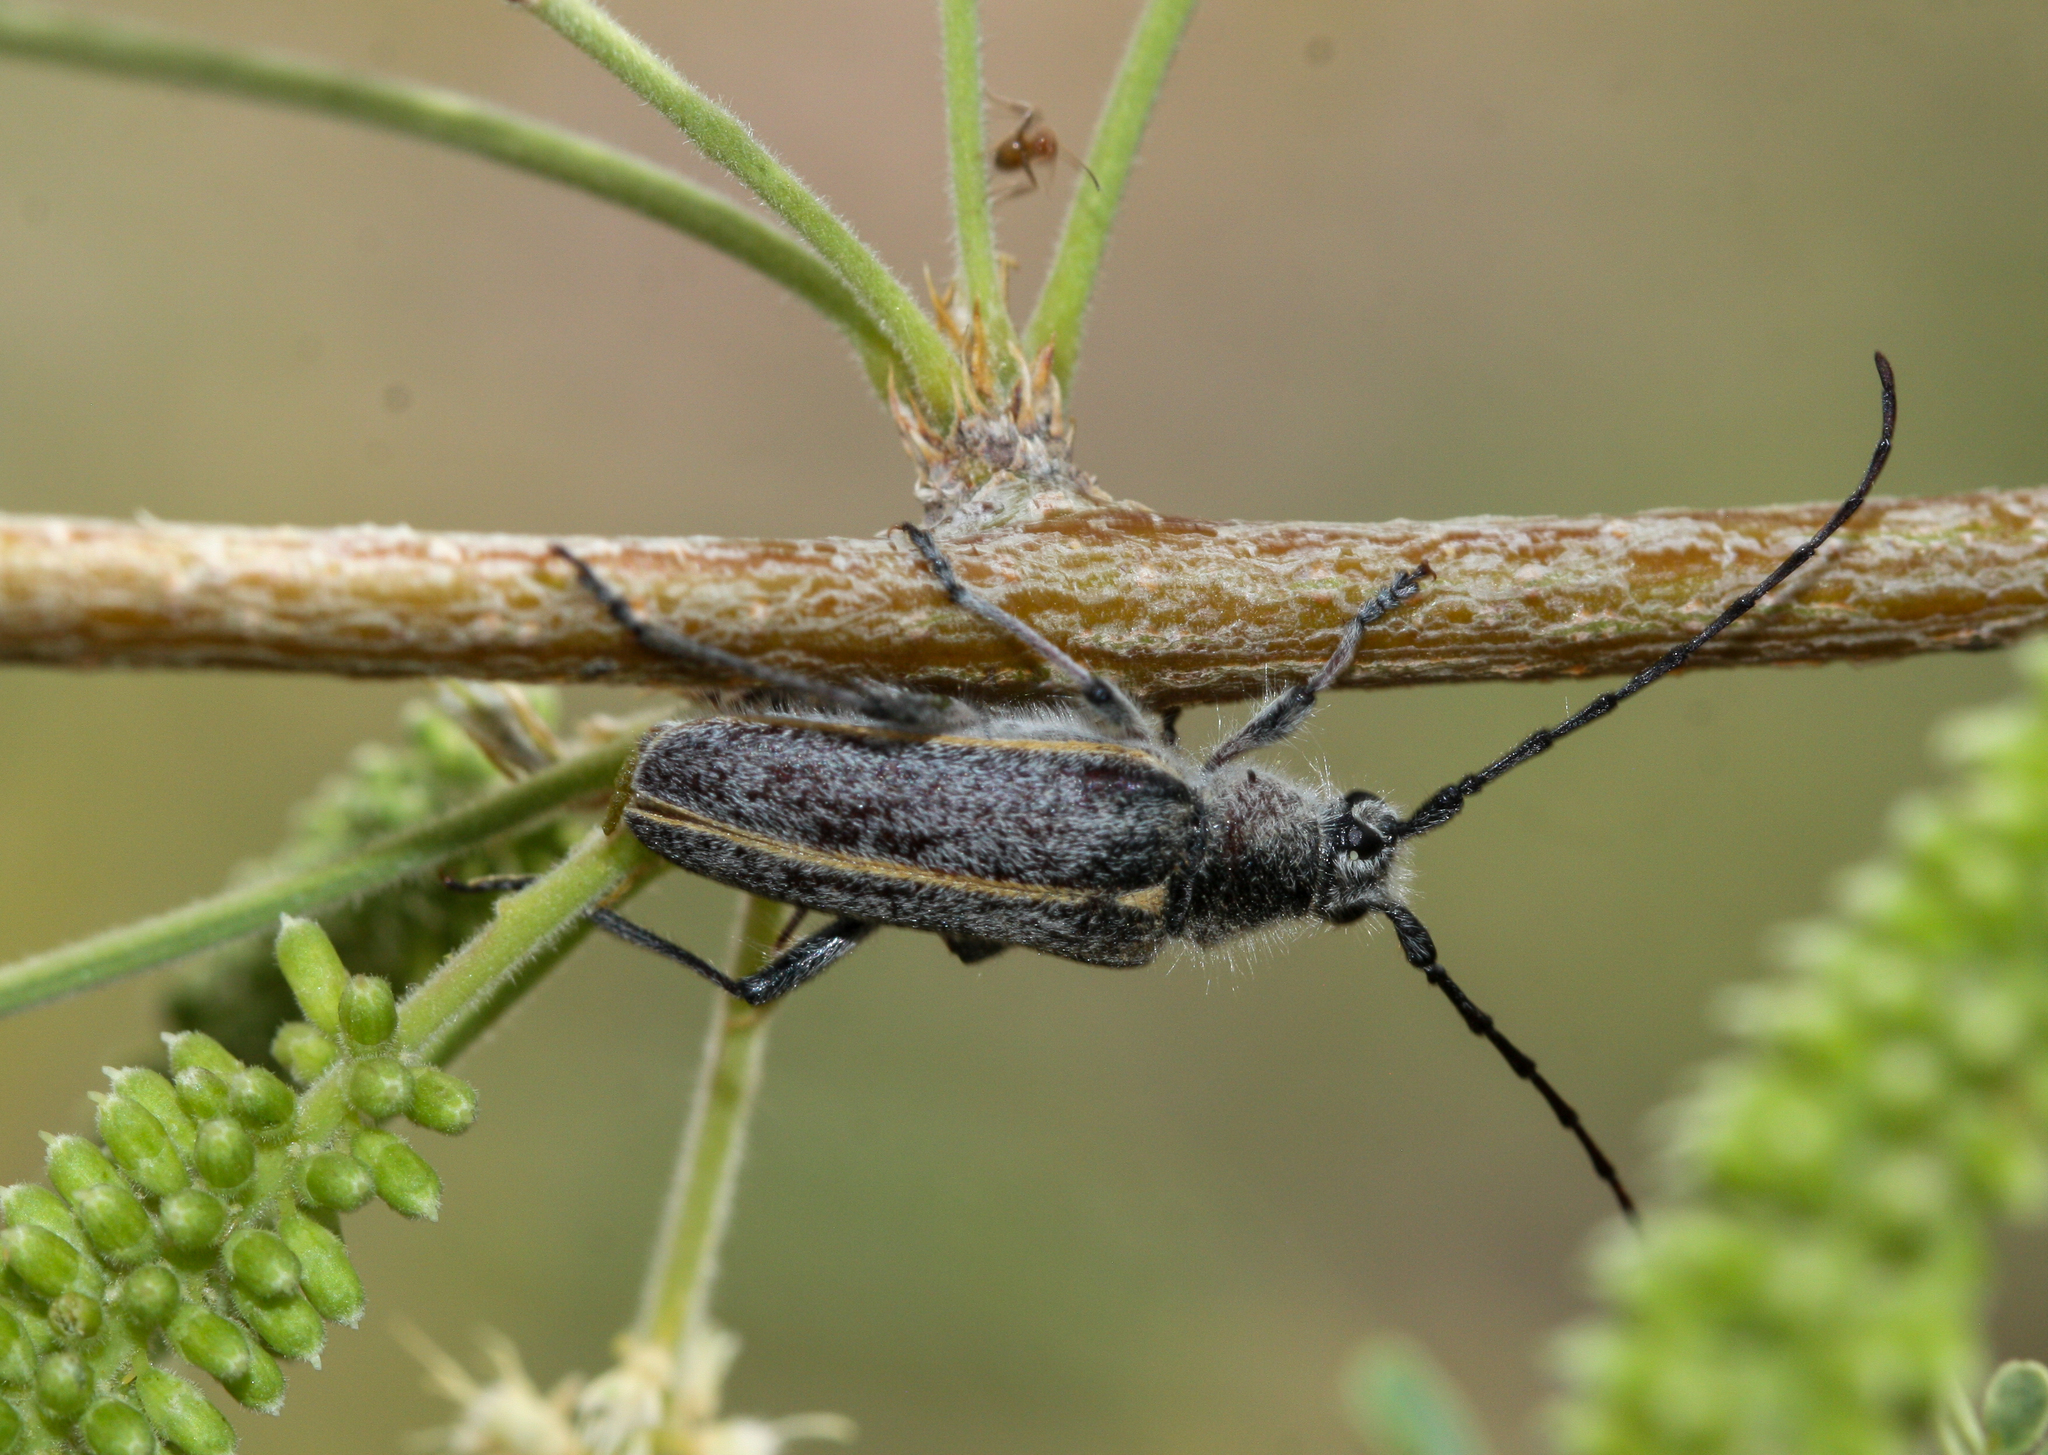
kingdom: Animalia
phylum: Arthropoda
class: Insecta
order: Coleoptera
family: Cerambycidae
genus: Schizax
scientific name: Schizax senex
